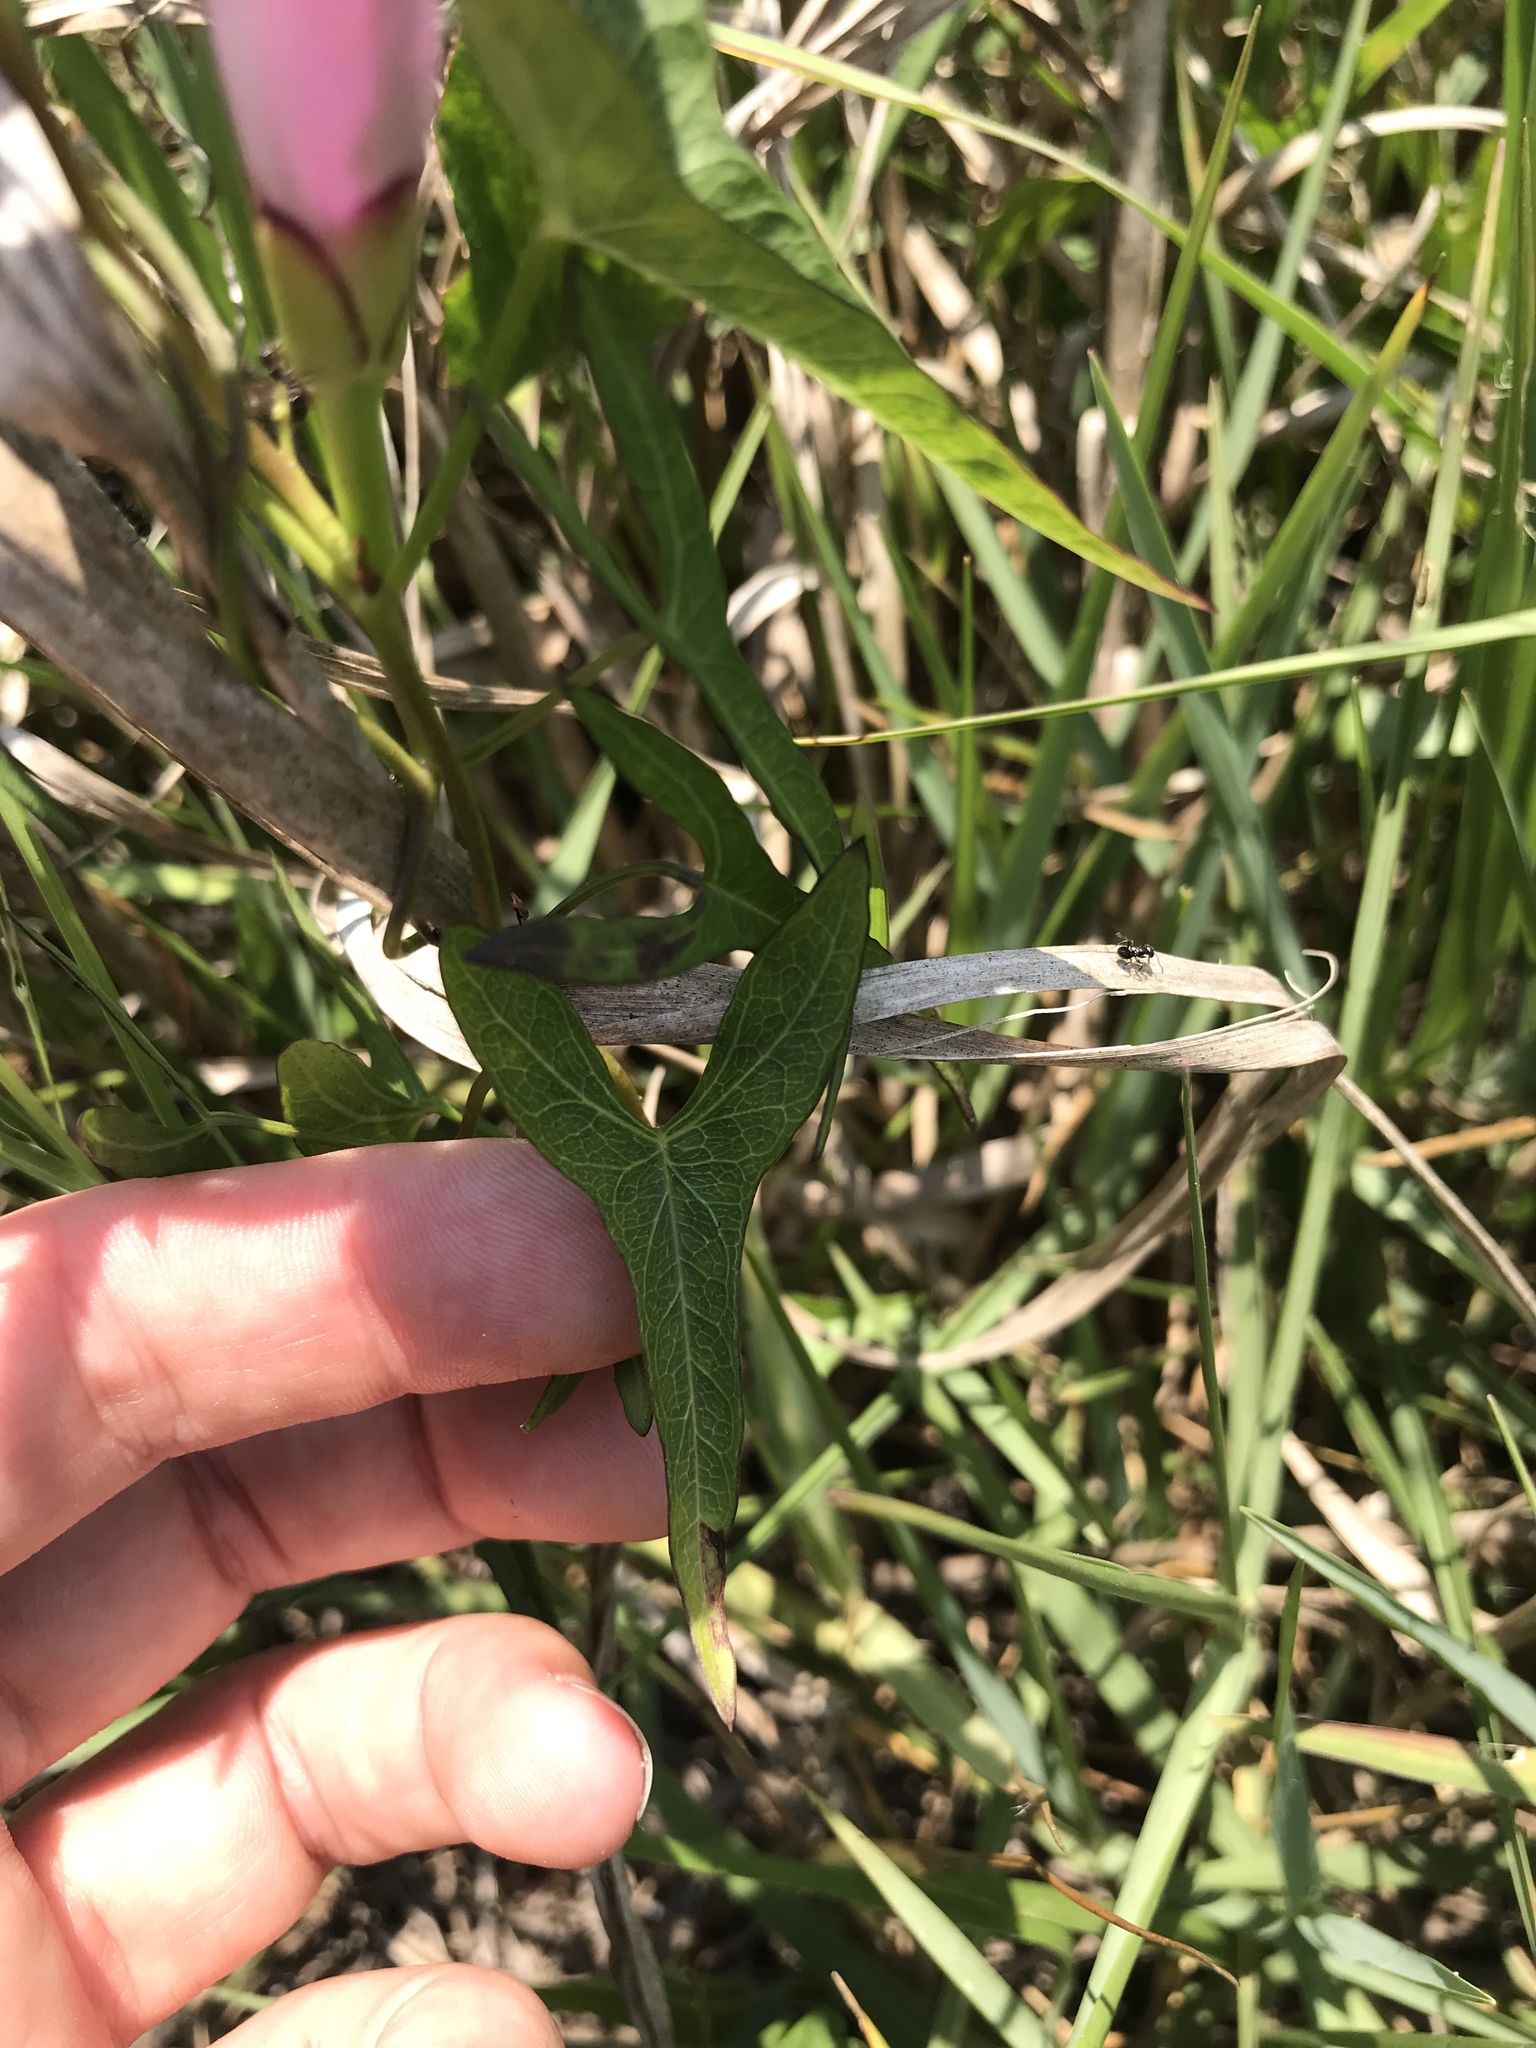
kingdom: Plantae
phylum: Tracheophyta
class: Magnoliopsida
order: Solanales
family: Convolvulaceae
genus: Ipomoea
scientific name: Ipomoea sagittata
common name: Saltmarsh morning glory
